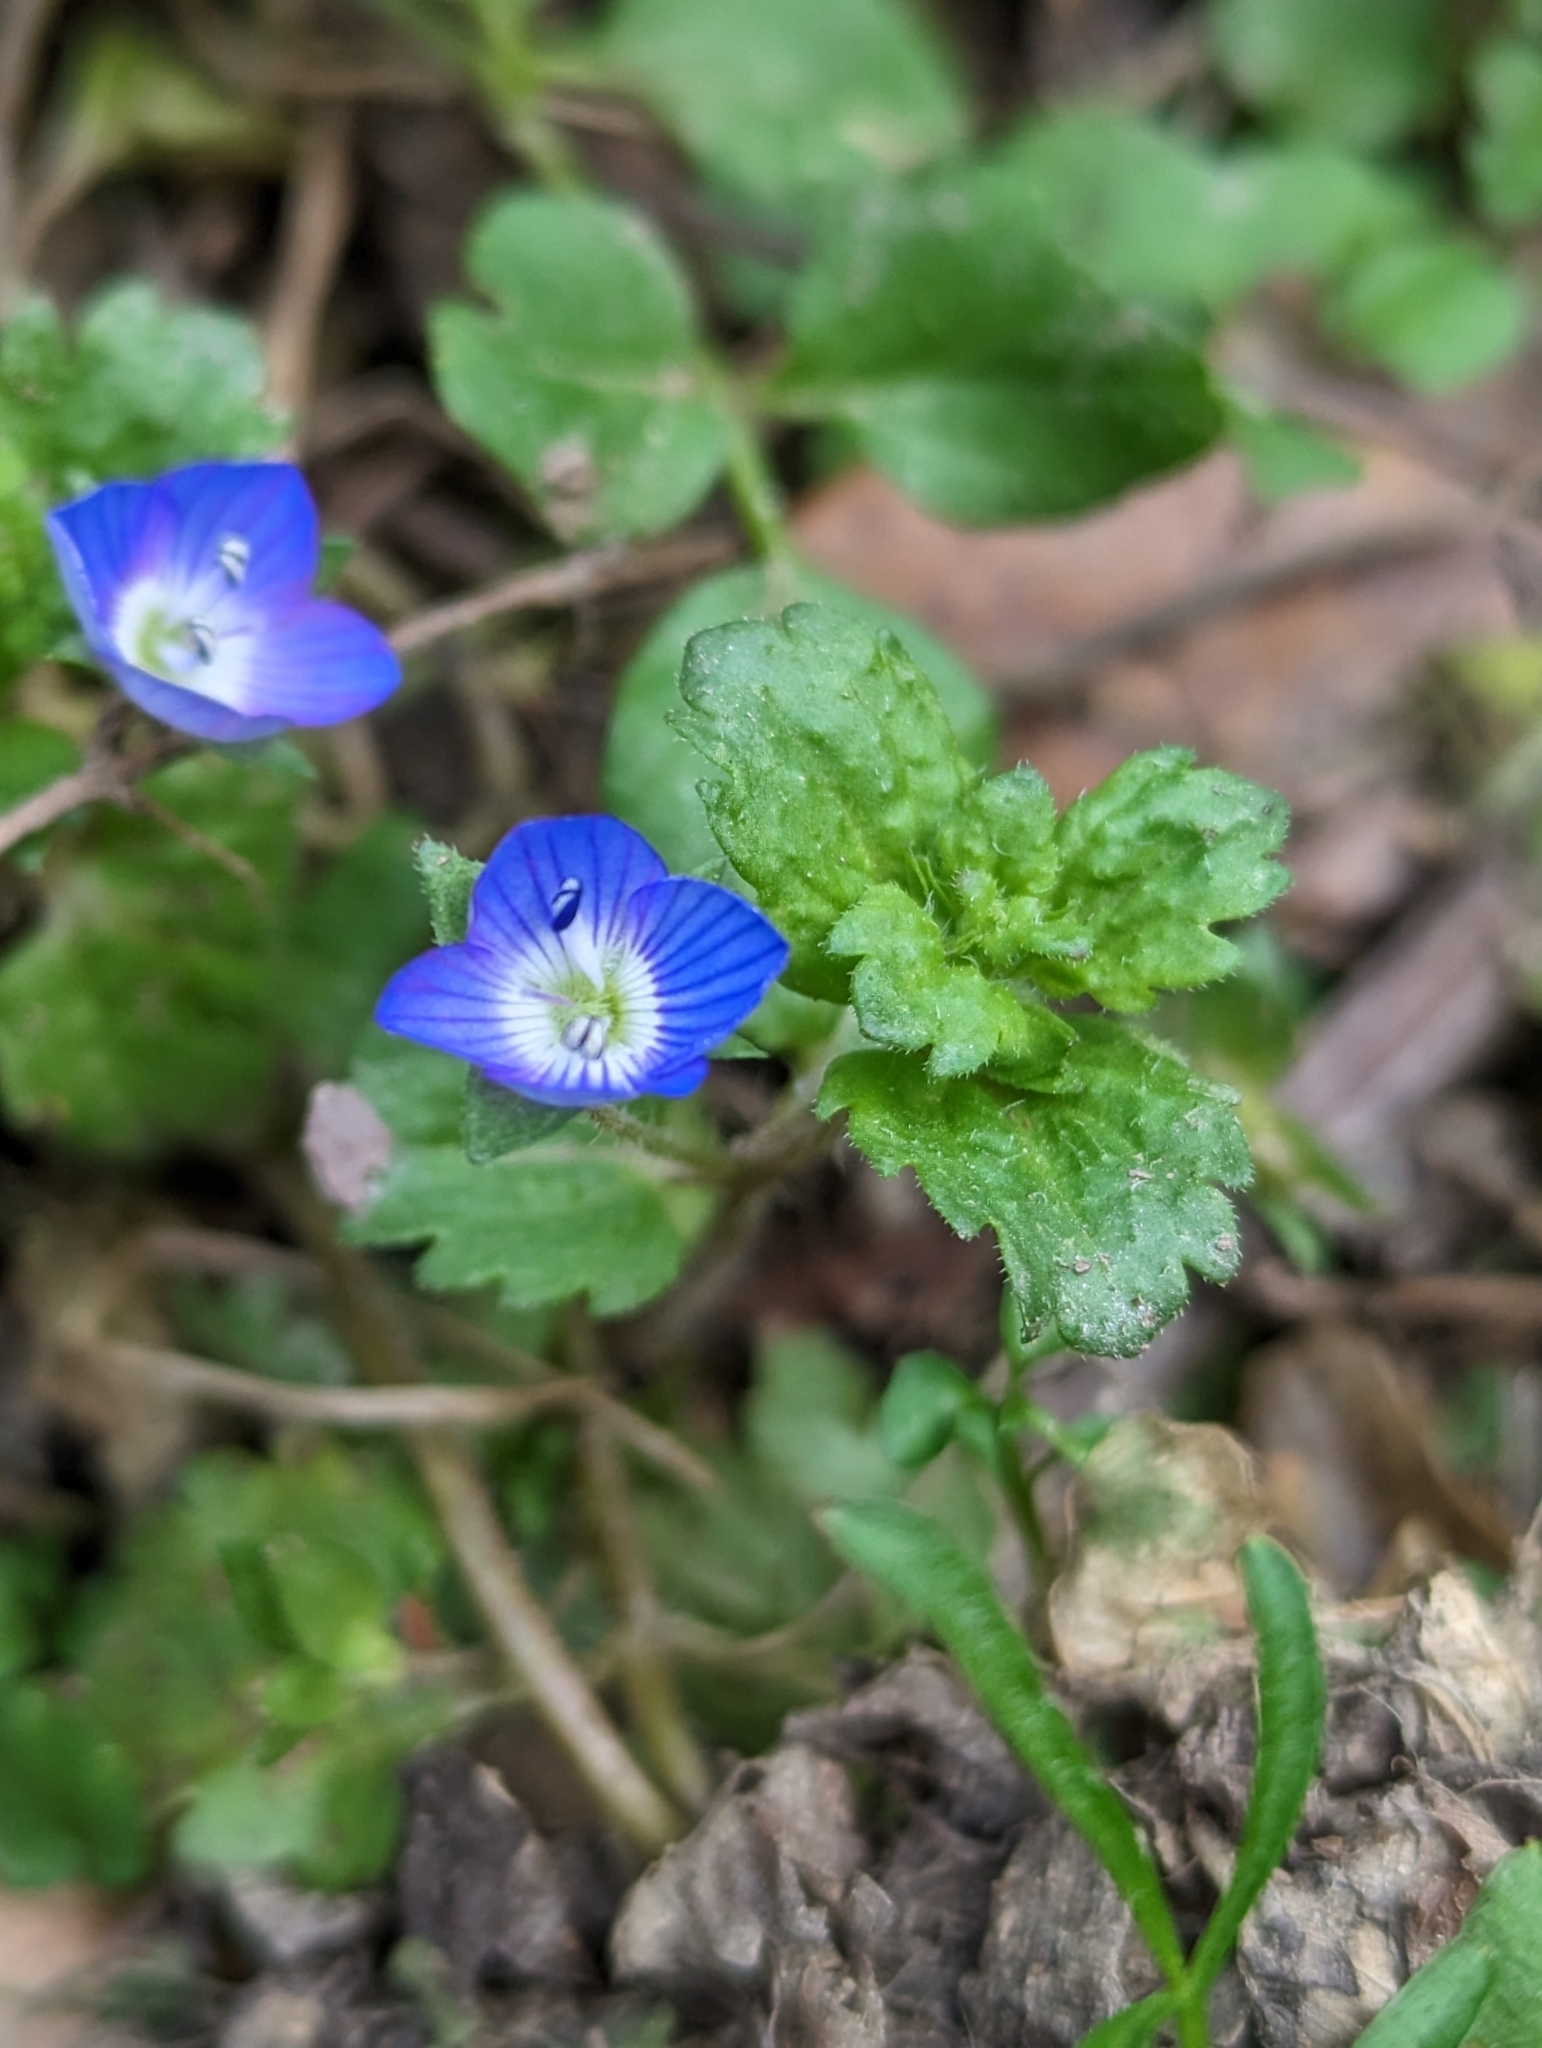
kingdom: Plantae
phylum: Tracheophyta
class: Magnoliopsida
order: Lamiales
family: Plantaginaceae
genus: Veronica
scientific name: Veronica persica
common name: Common field-speedwell
